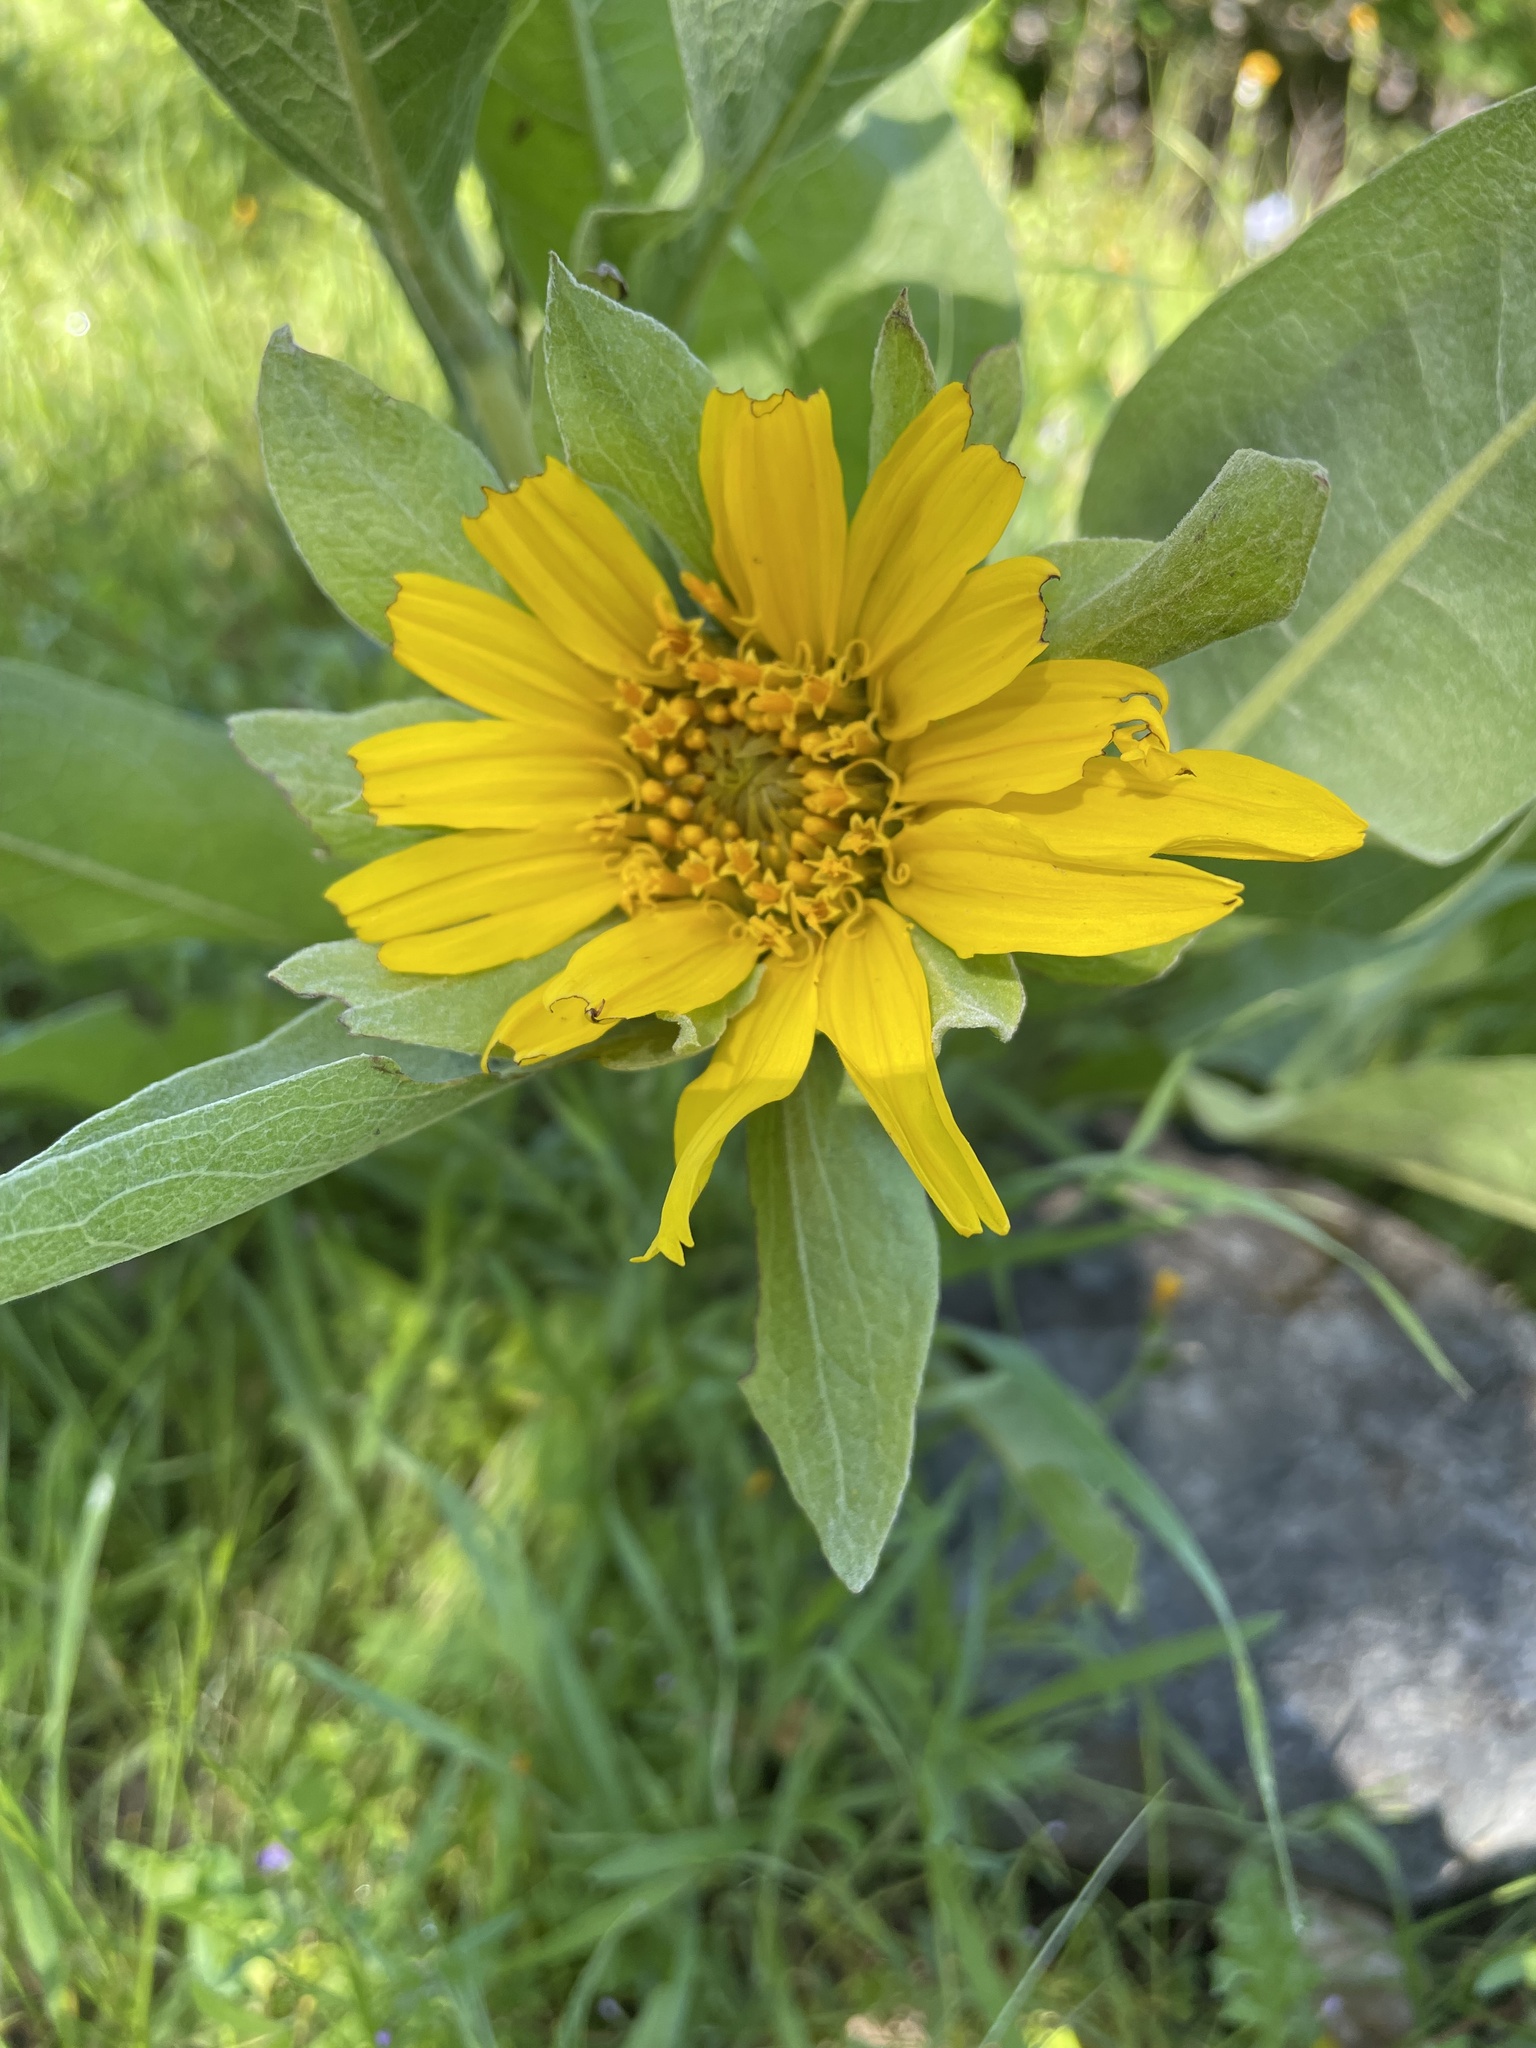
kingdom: Plantae
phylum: Tracheophyta
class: Magnoliopsida
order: Asterales
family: Asteraceae
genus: Wyethia
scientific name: Wyethia glabra
